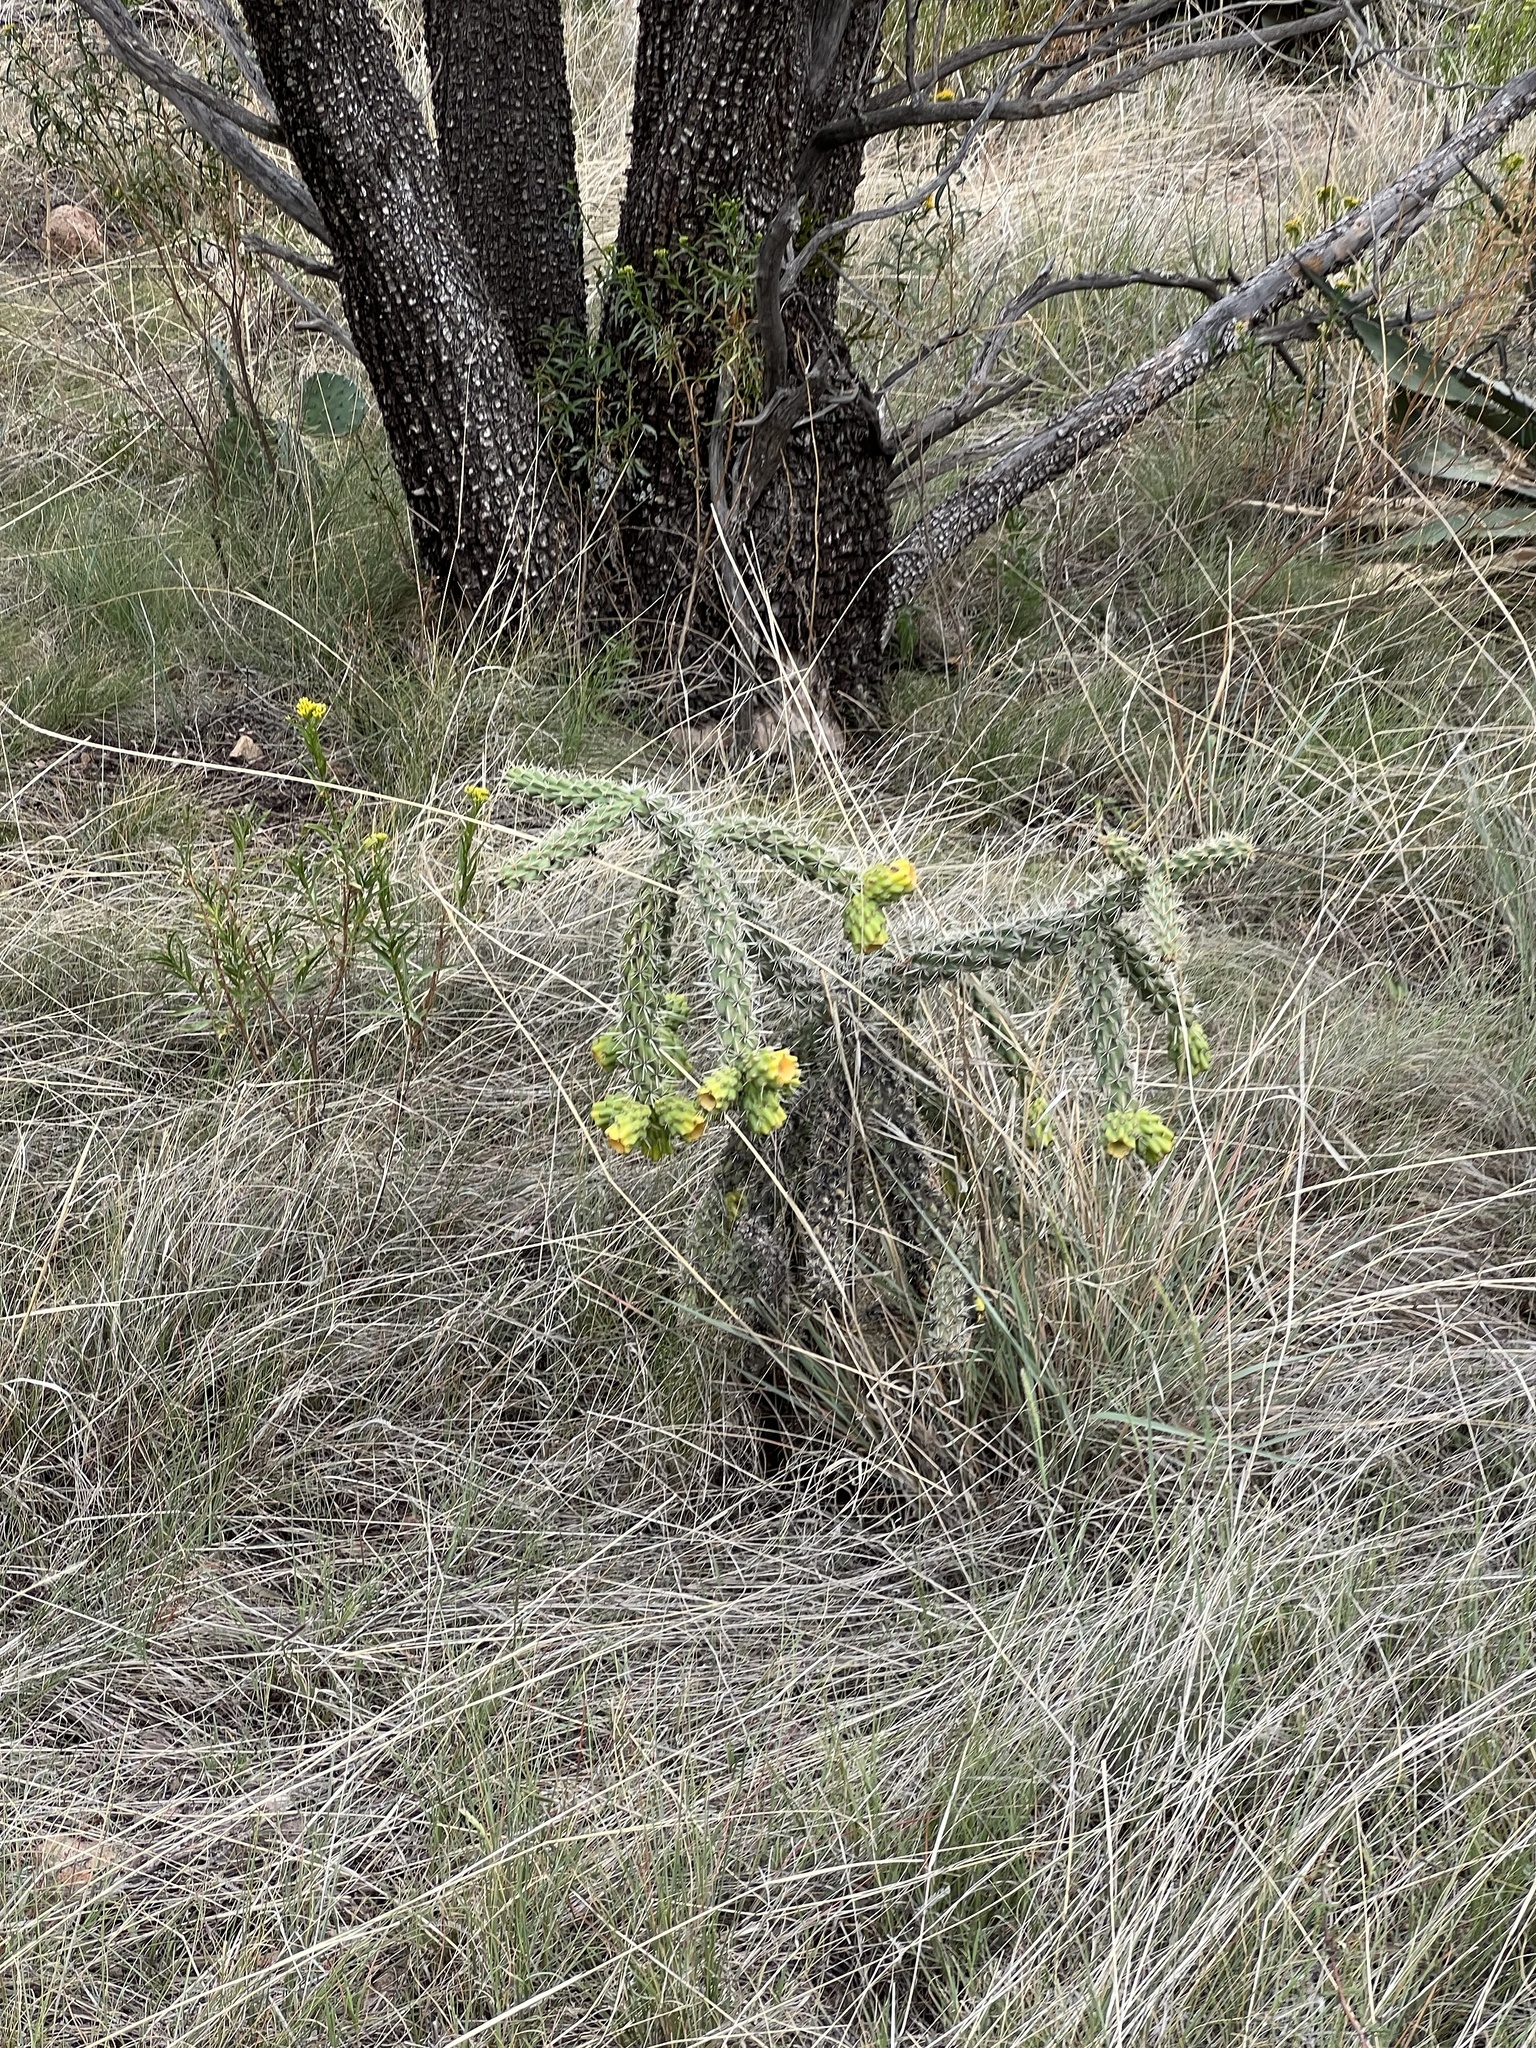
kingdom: Plantae
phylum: Tracheophyta
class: Magnoliopsida
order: Caryophyllales
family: Cactaceae
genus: Cylindropuntia
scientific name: Cylindropuntia imbricata
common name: Candelabrum cactus
